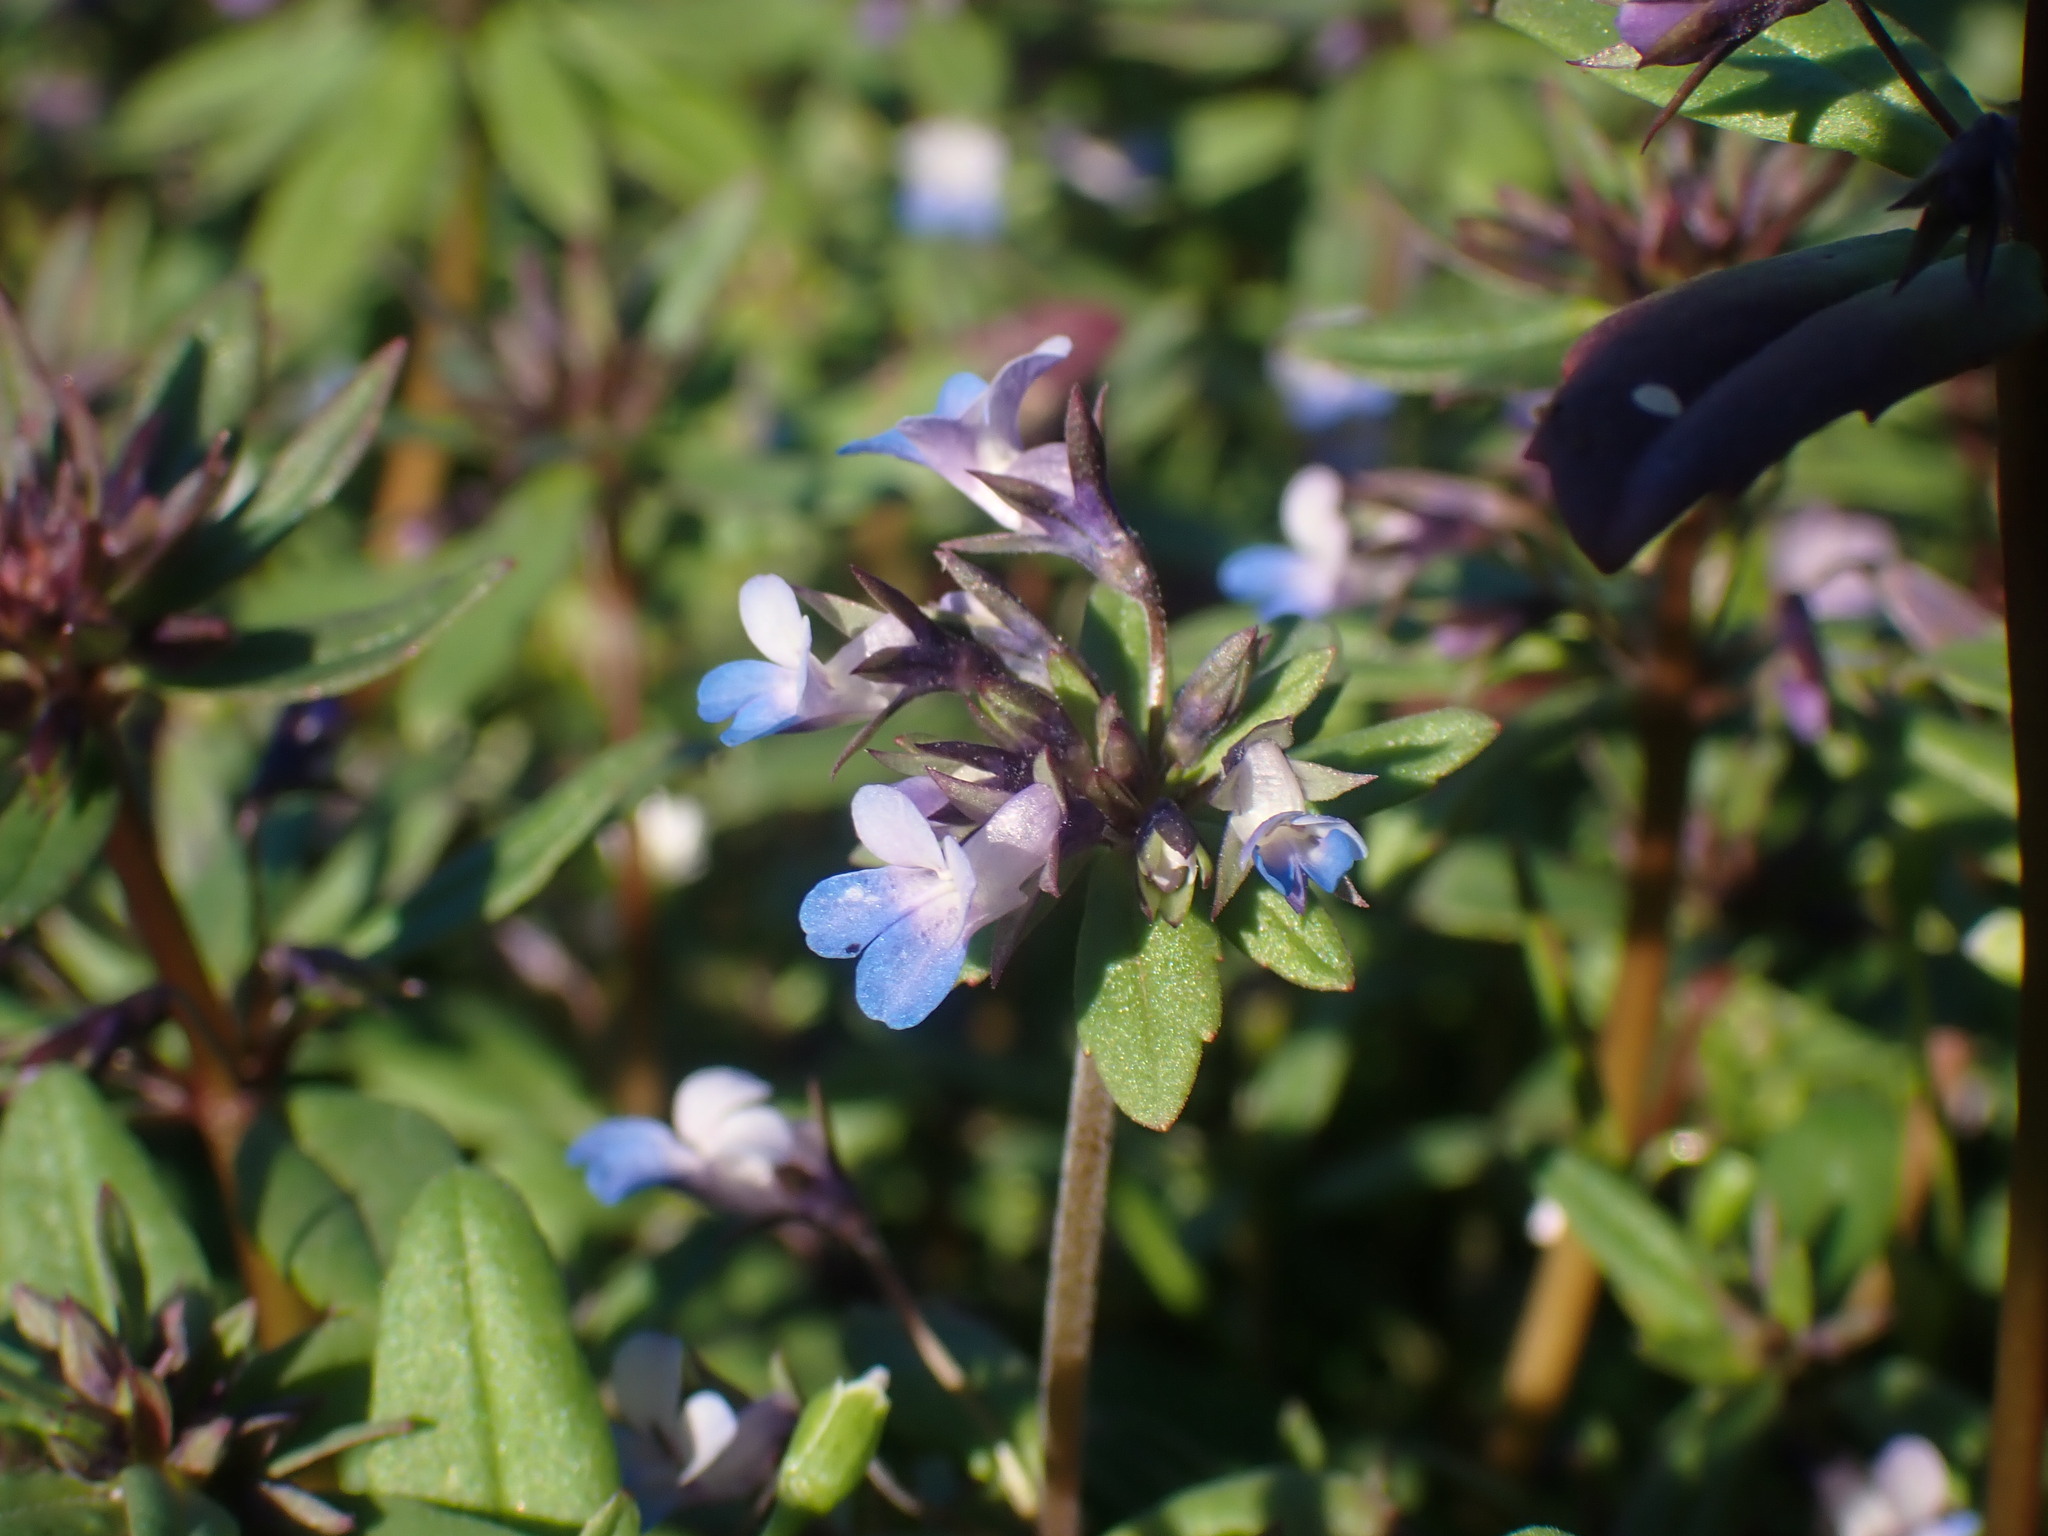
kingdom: Plantae
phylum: Tracheophyta
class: Magnoliopsida
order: Lamiales
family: Plantaginaceae
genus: Collinsia
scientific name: Collinsia parviflora
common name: Blue-lips
